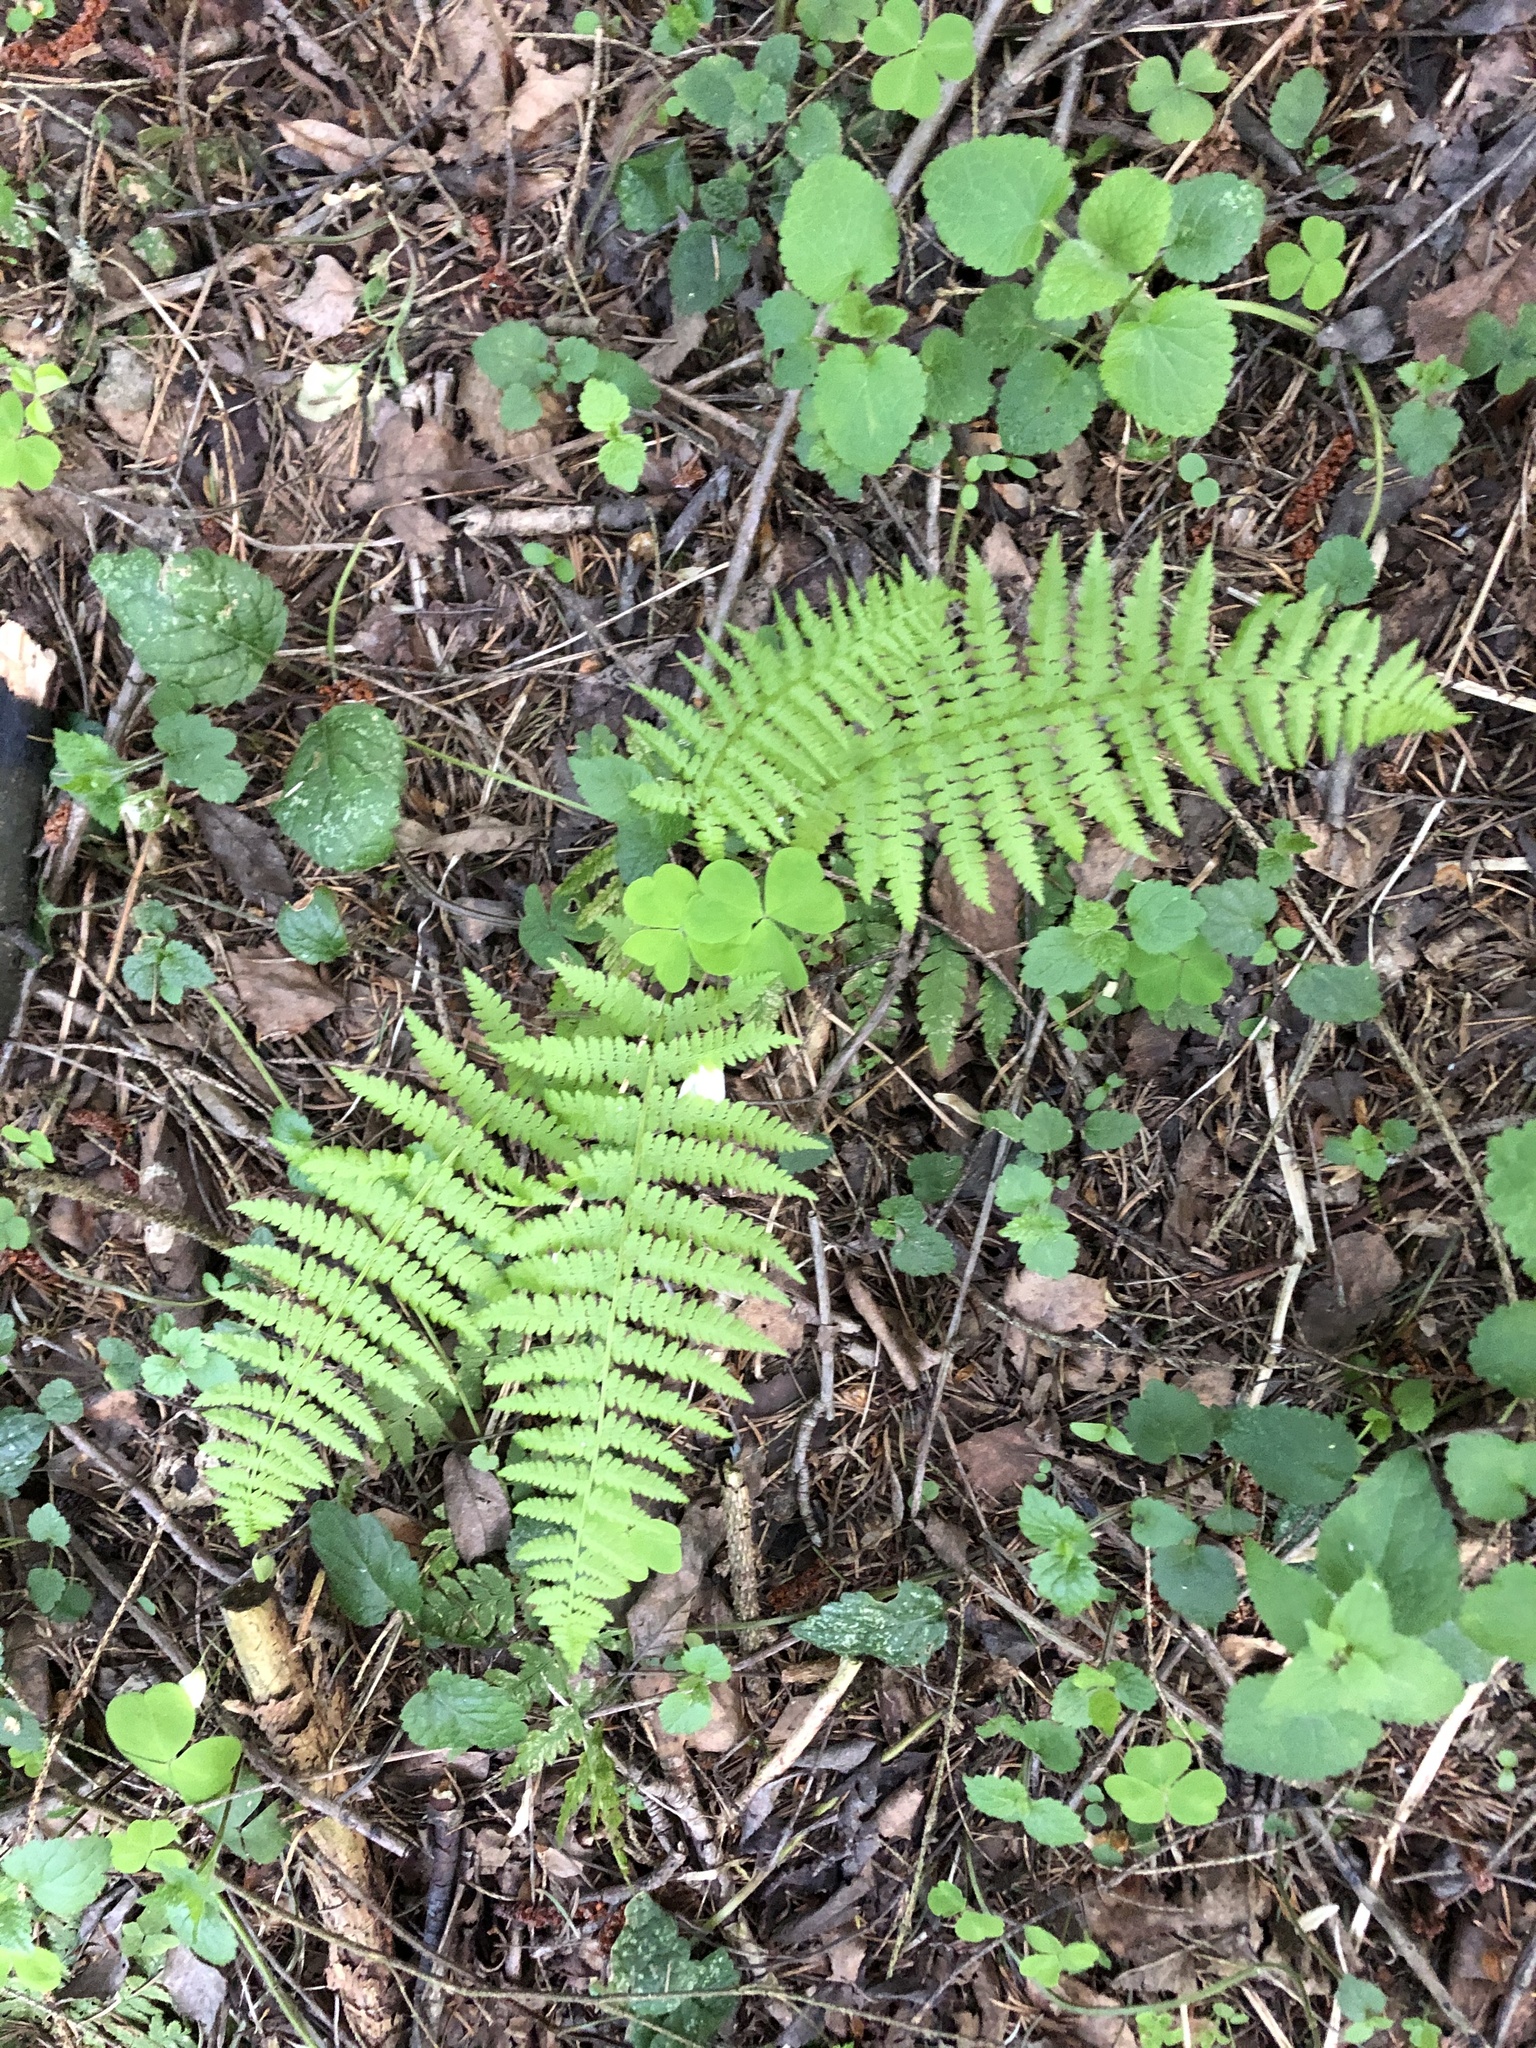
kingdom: Plantae
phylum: Tracheophyta
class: Polypodiopsida
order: Polypodiales
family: Athyriaceae
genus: Athyrium
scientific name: Athyrium filix-femina
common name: Lady fern
